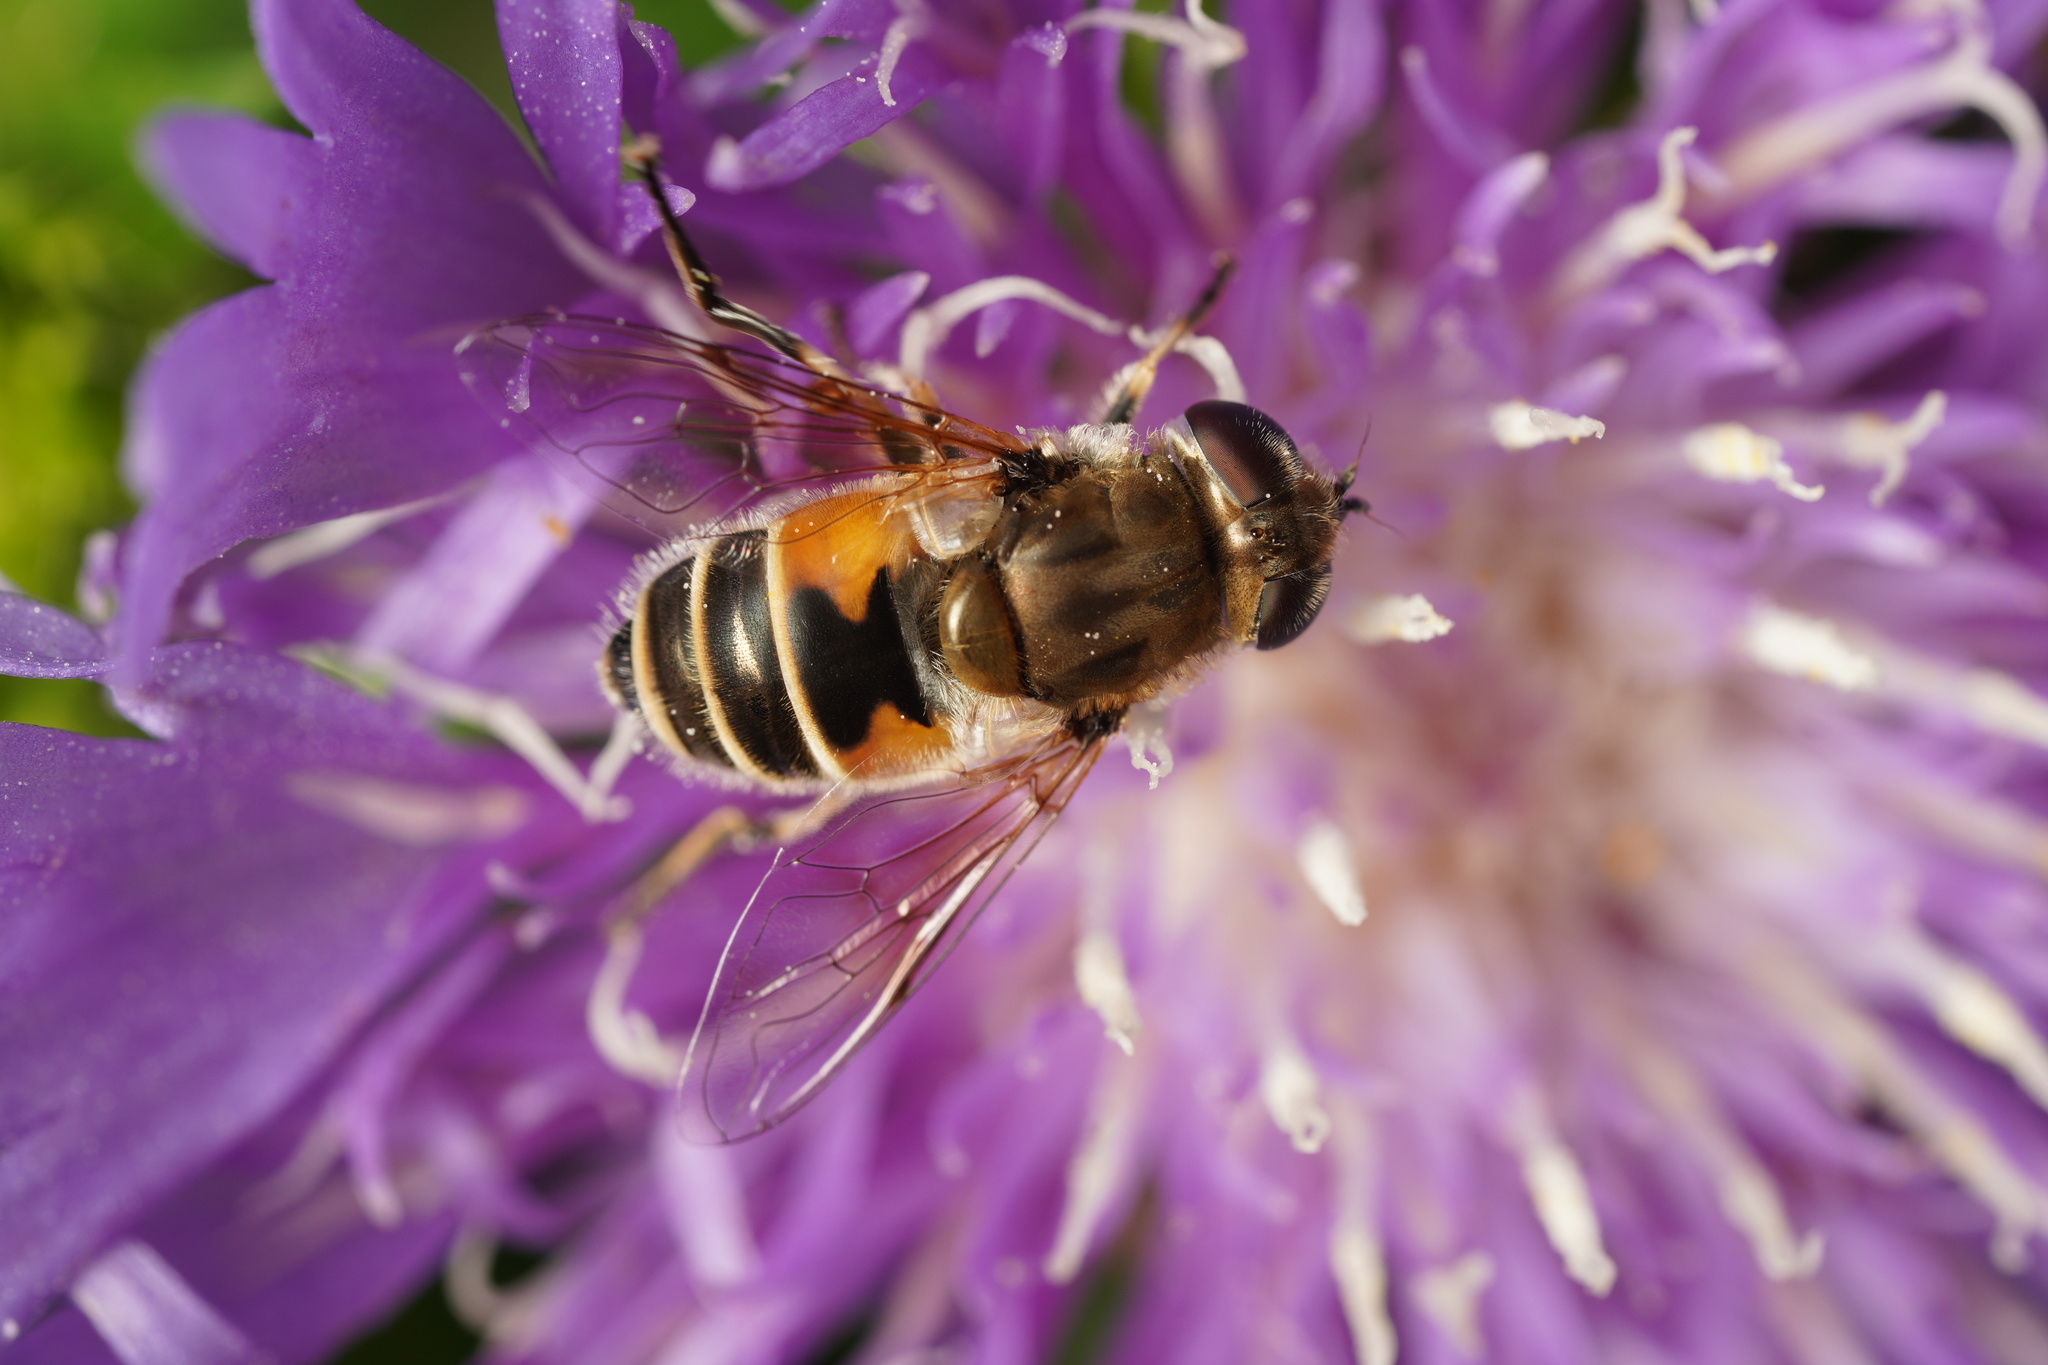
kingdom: Animalia
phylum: Arthropoda
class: Insecta
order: Diptera
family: Syrphidae
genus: Eristalis
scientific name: Eristalis arbustorum
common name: Hover fly
